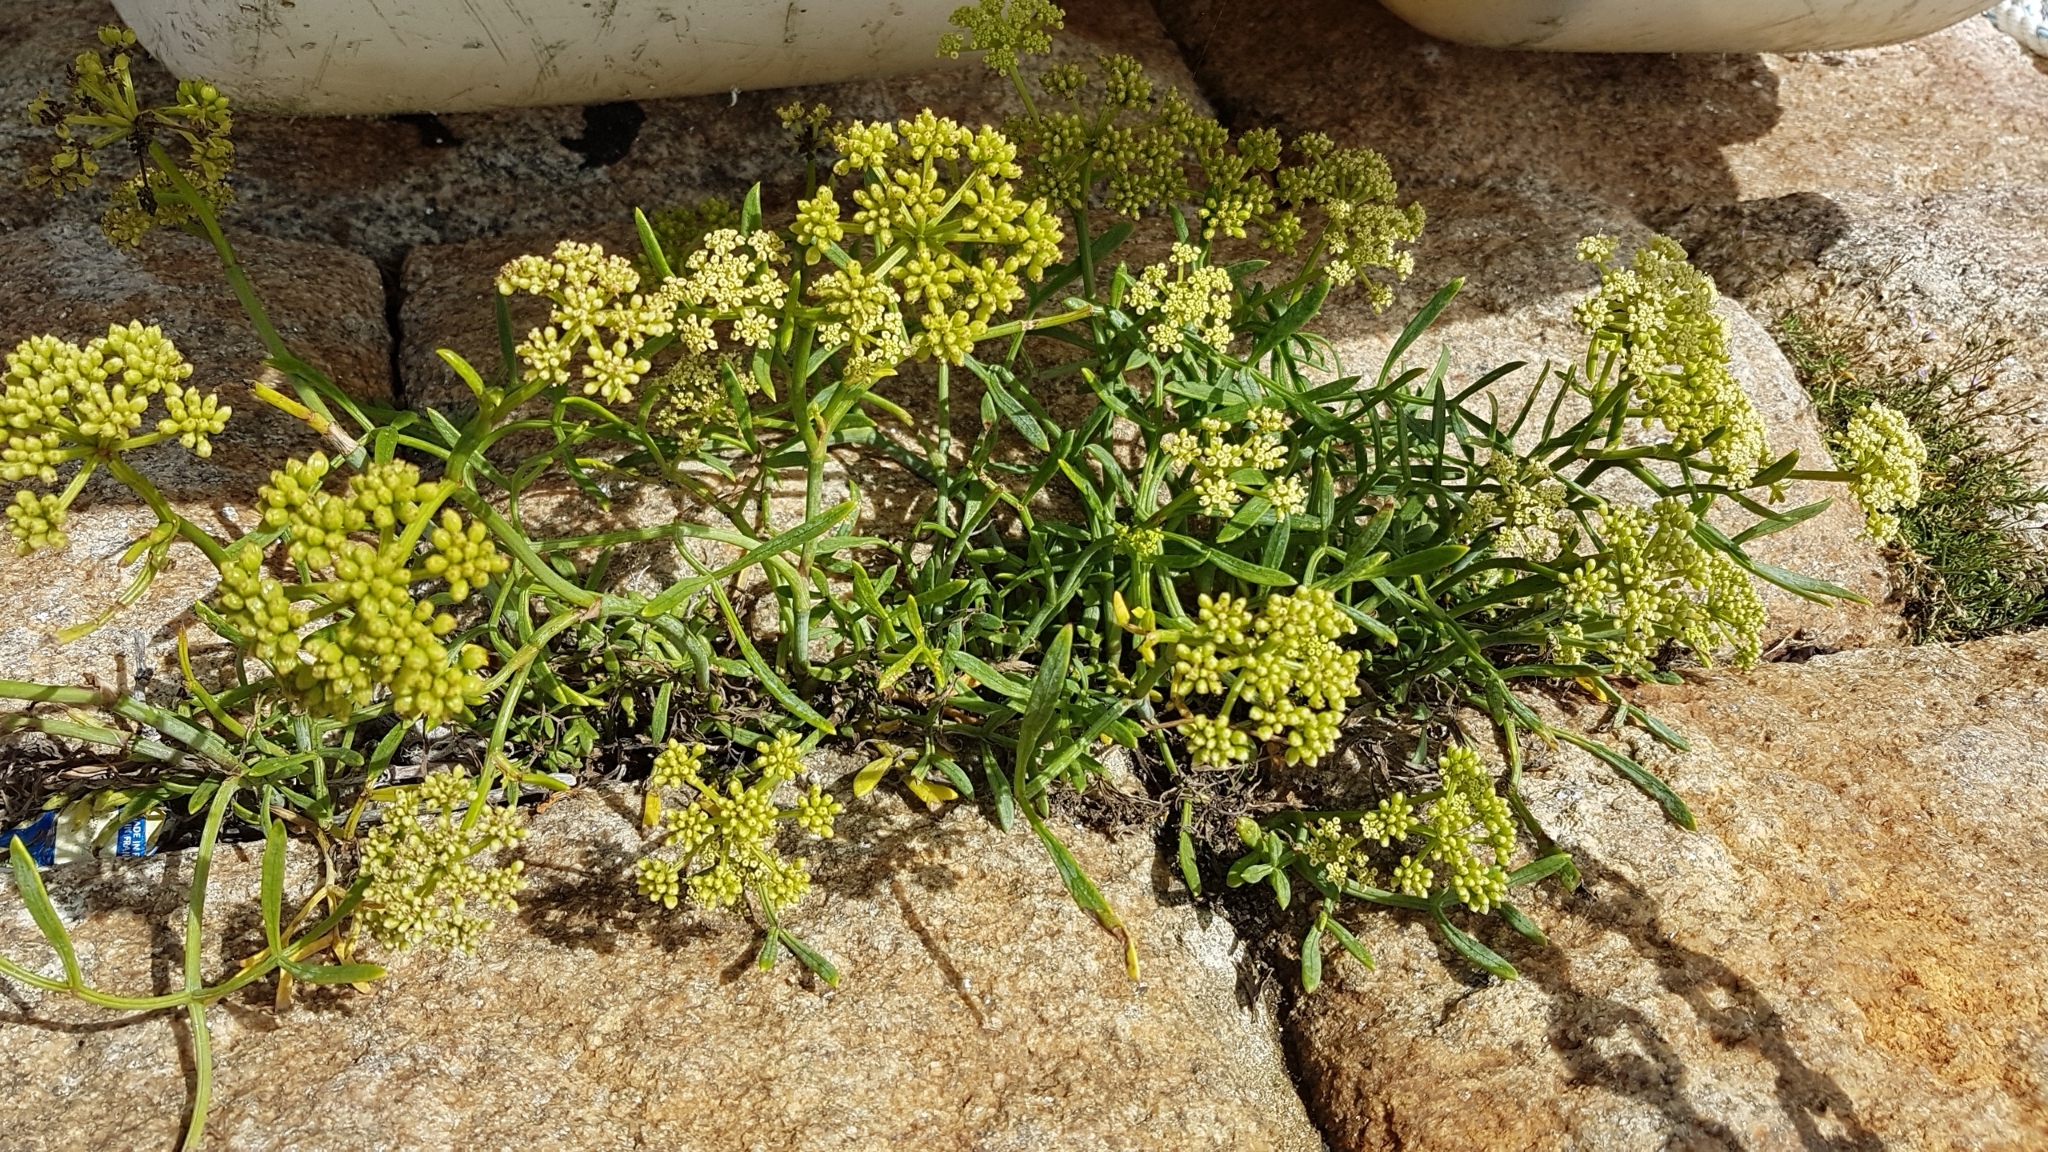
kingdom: Plantae
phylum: Tracheophyta
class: Magnoliopsida
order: Apiales
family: Apiaceae
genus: Crithmum
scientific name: Crithmum maritimum
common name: Rock samphire
